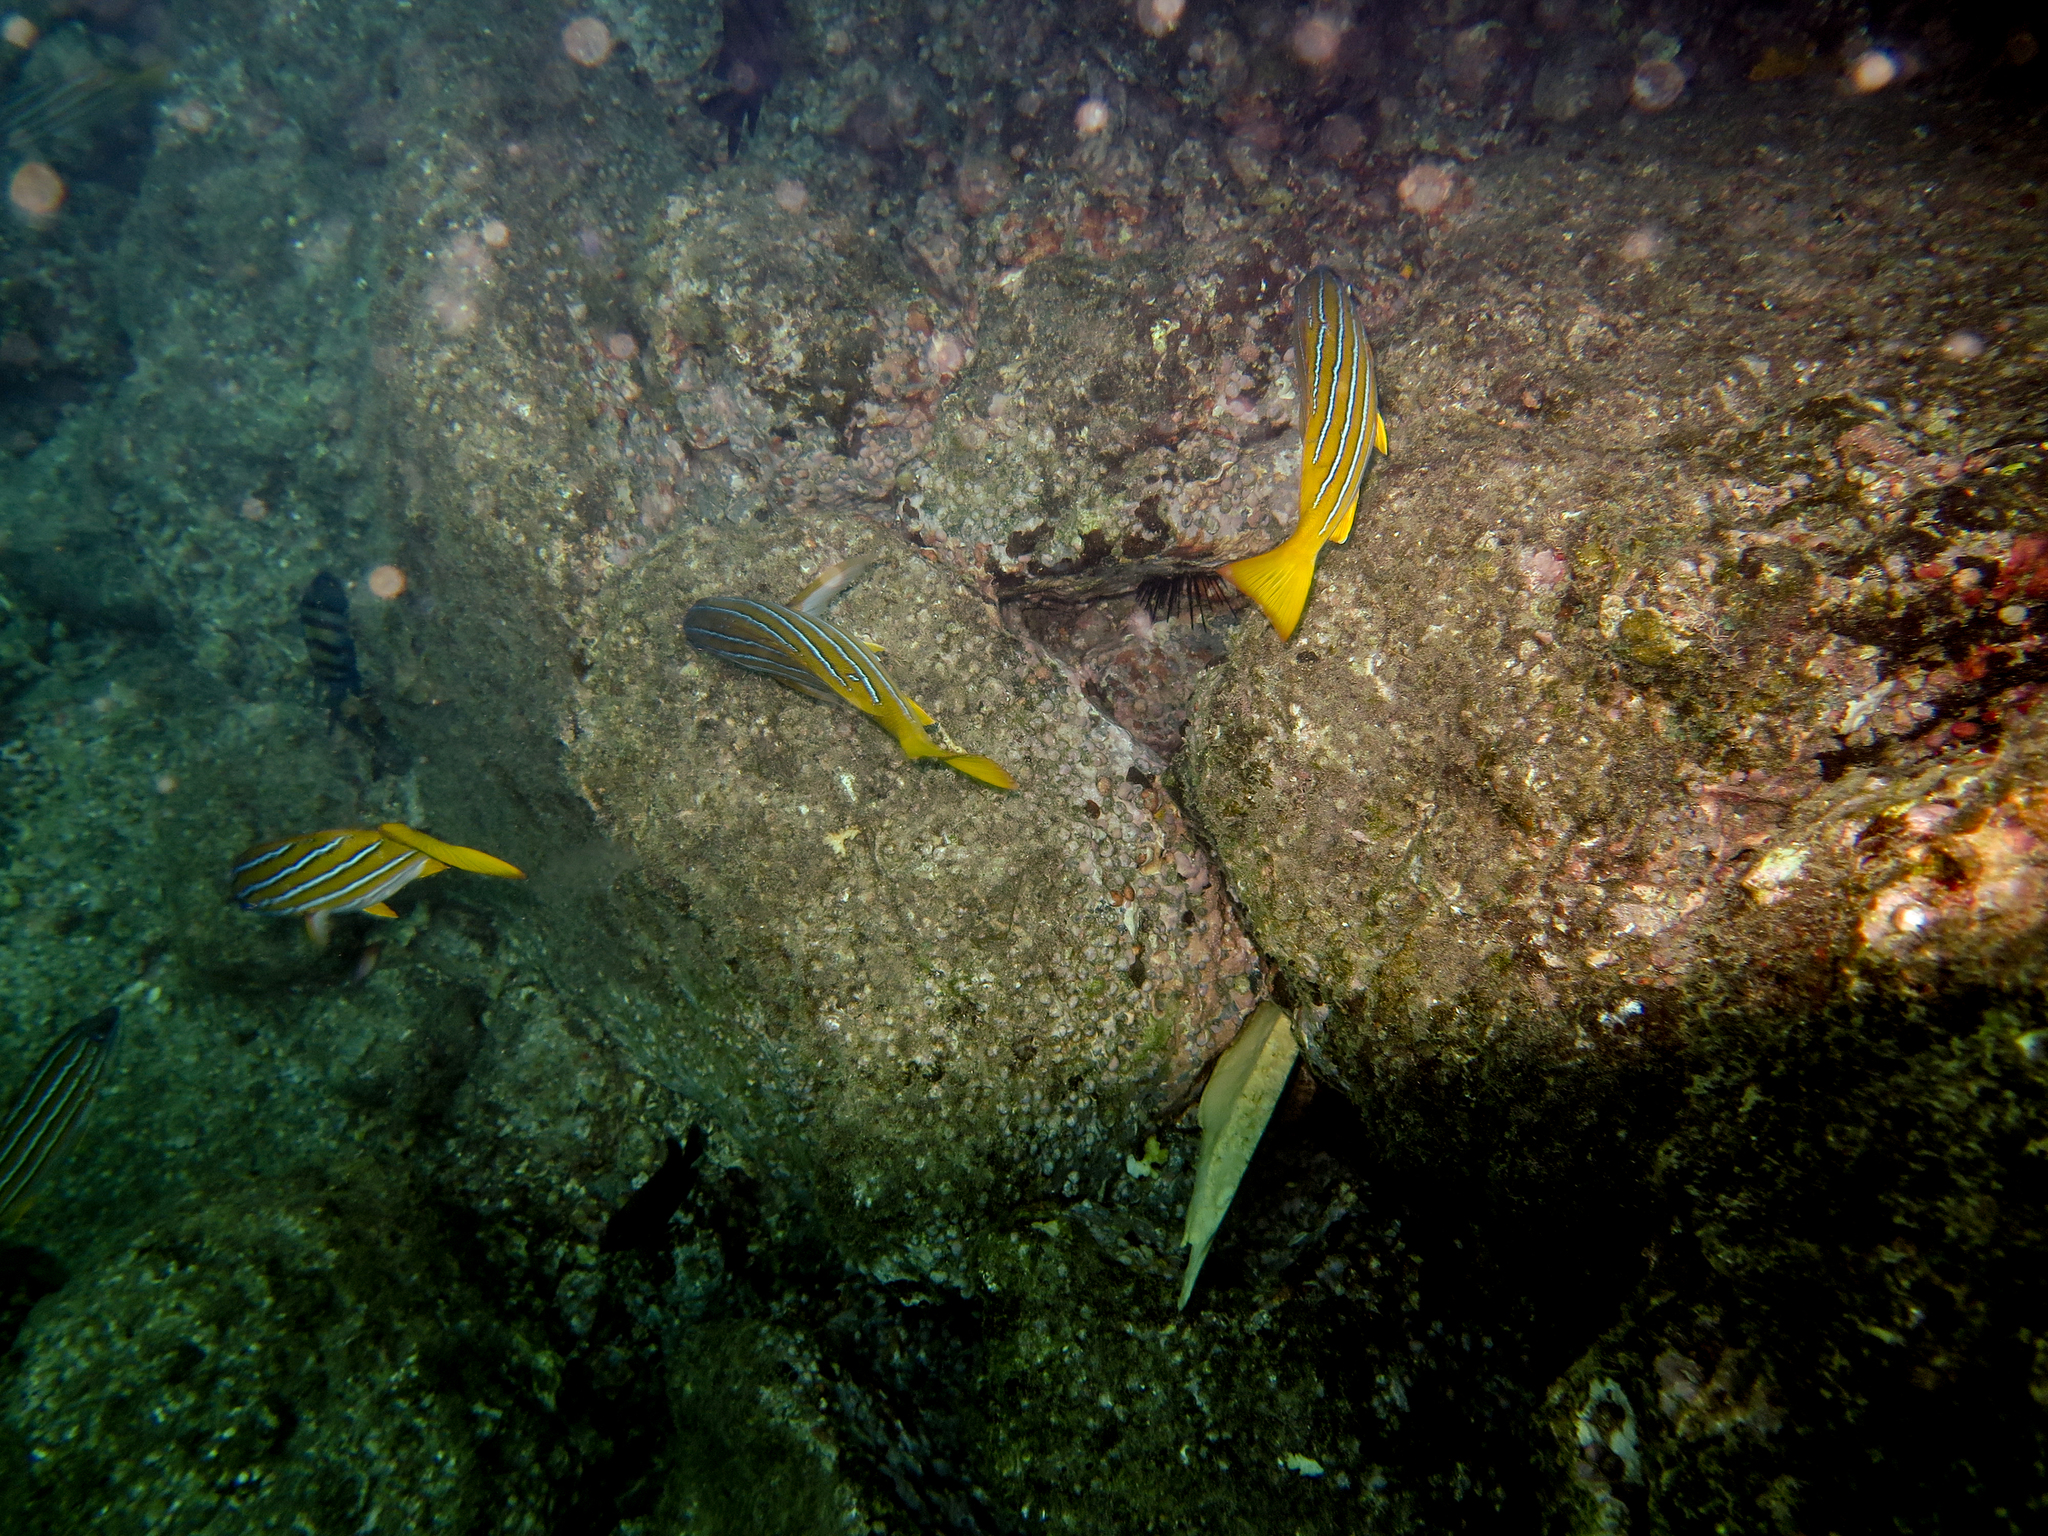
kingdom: Animalia
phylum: Chordata
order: Perciformes
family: Lutjanidae
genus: Lutjanus
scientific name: Lutjanus viridis
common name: Blue and gold snapper
